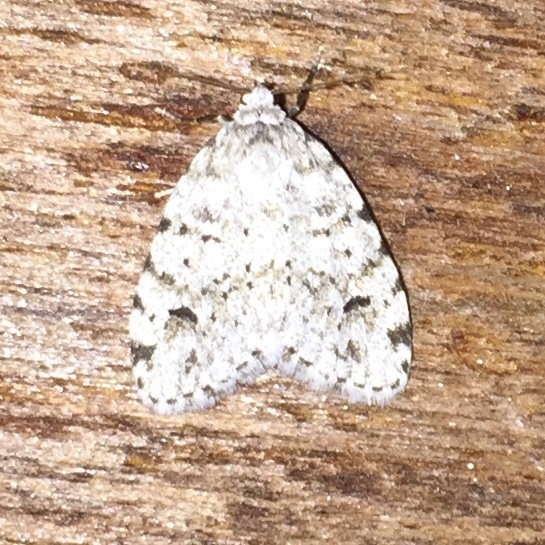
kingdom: Animalia
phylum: Arthropoda
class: Insecta
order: Lepidoptera
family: Erebidae
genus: Clemensia
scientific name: Clemensia albata
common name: Little white lichen moth
